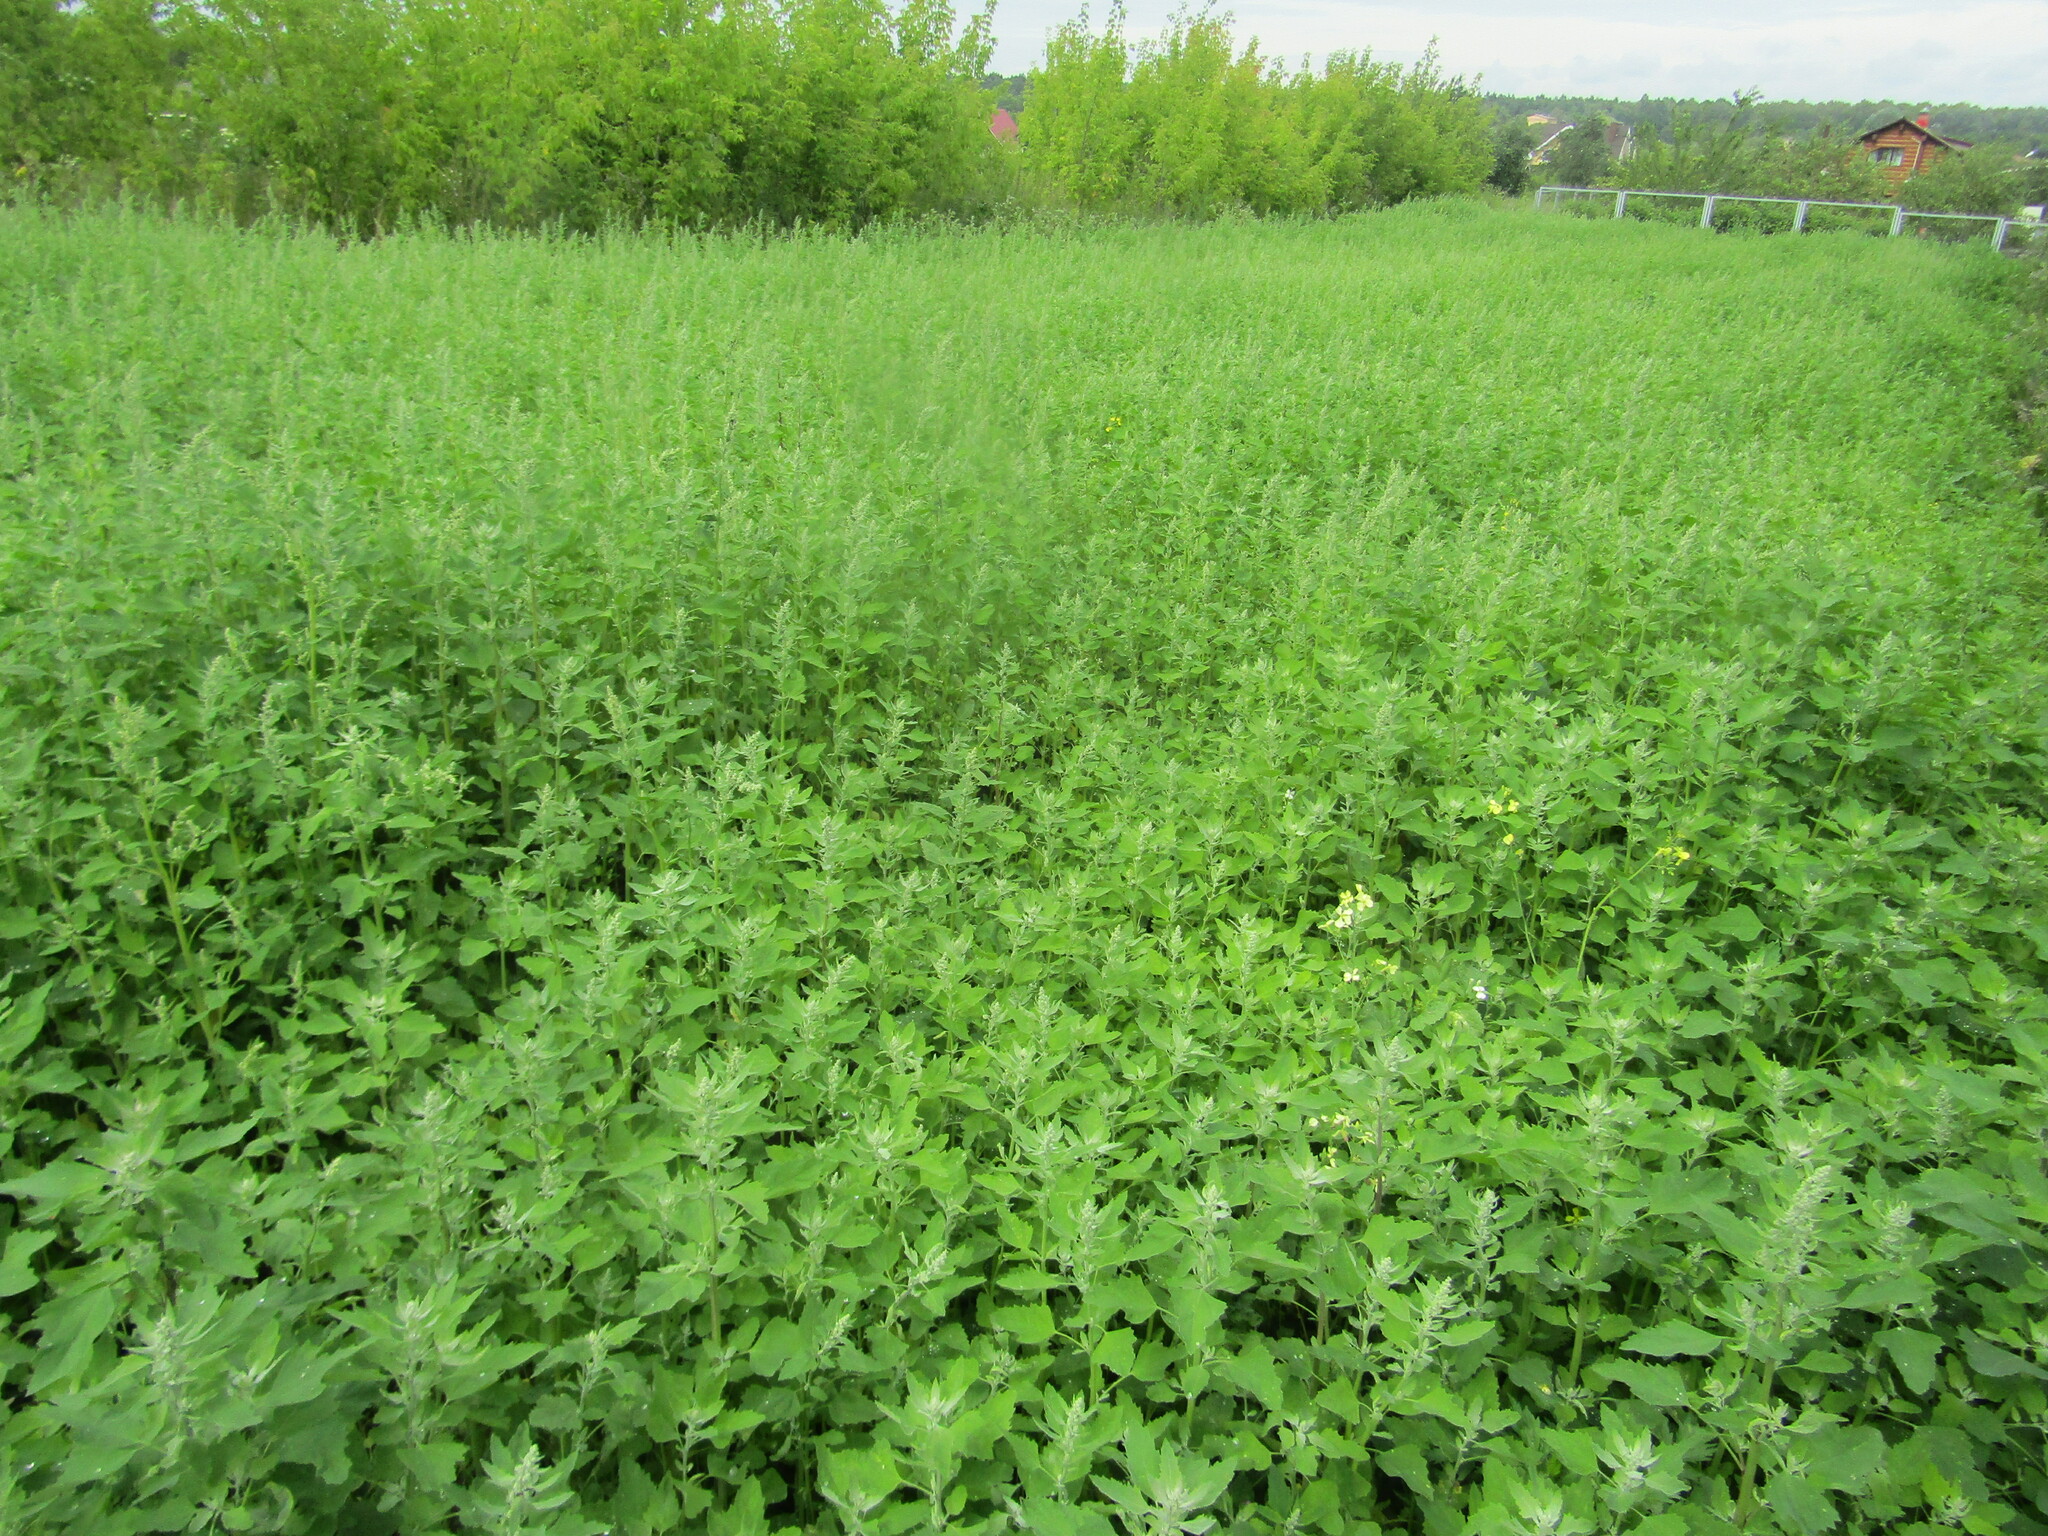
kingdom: Plantae
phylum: Tracheophyta
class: Magnoliopsida
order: Caryophyllales
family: Amaranthaceae
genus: Chenopodium
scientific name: Chenopodium album
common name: Fat-hen
